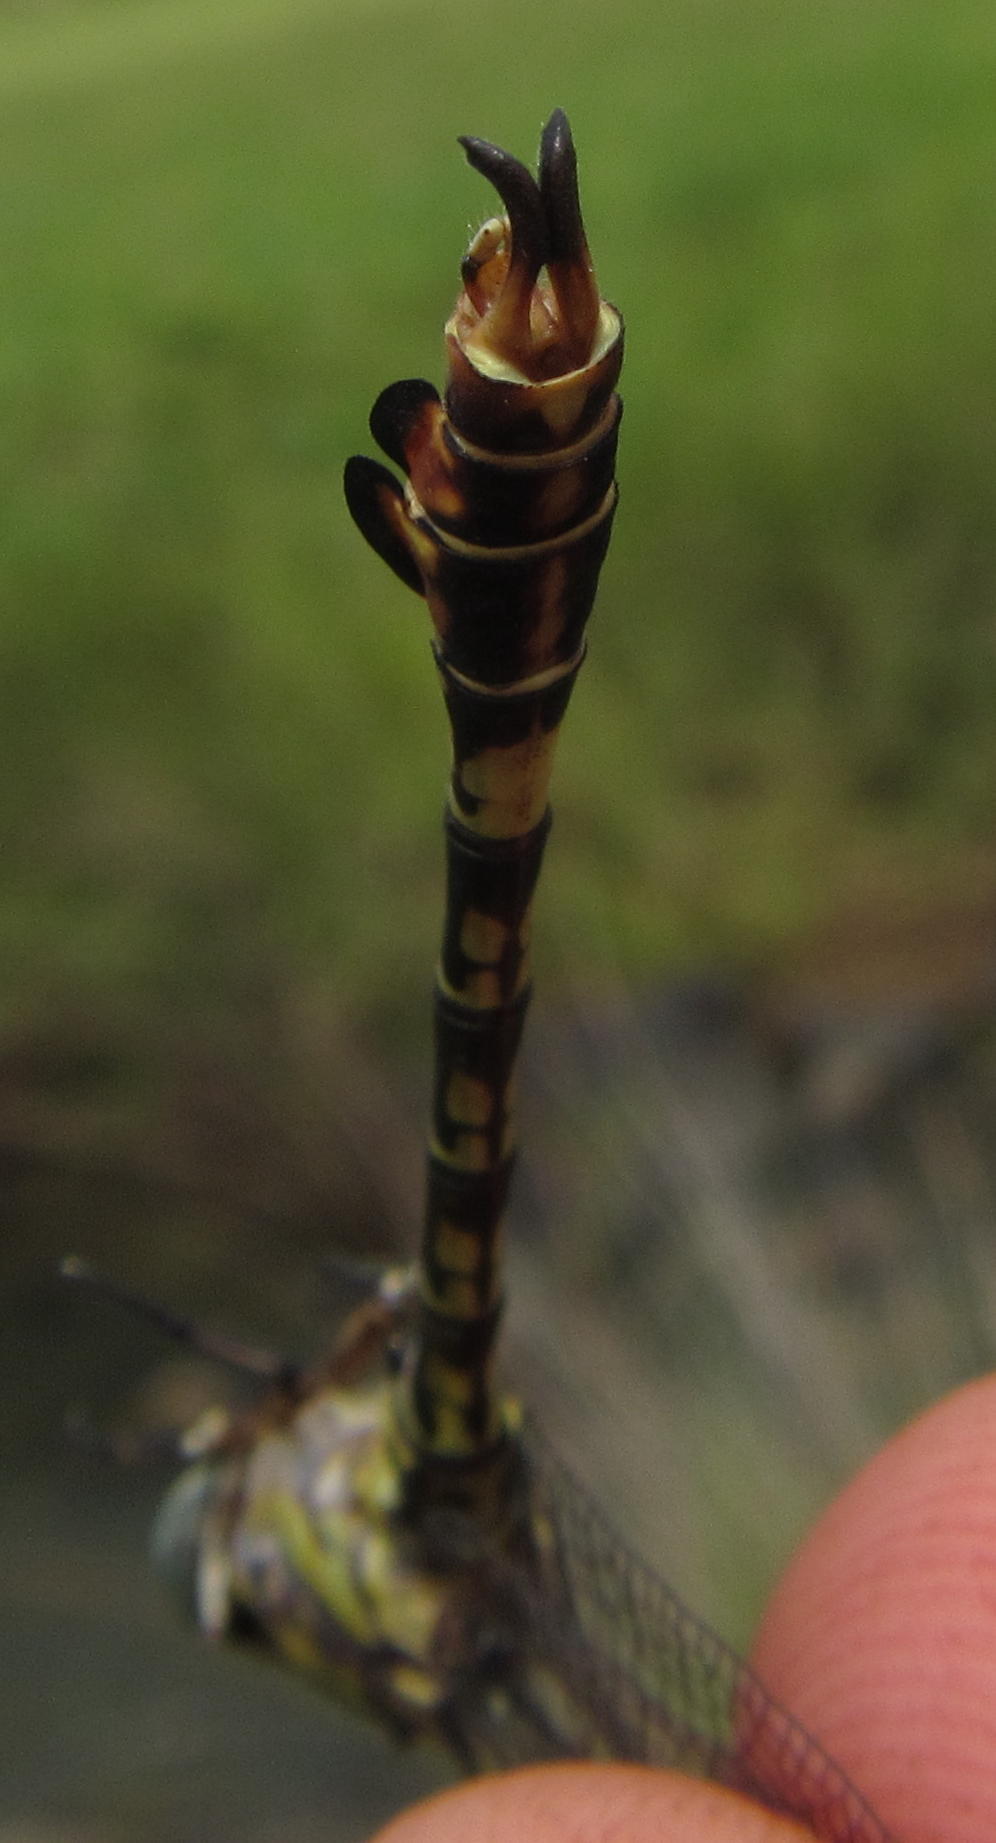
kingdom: Animalia
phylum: Arthropoda
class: Insecta
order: Odonata
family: Gomphidae
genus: Paragomphus
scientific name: Paragomphus cognatus
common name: Boulder hooktail
